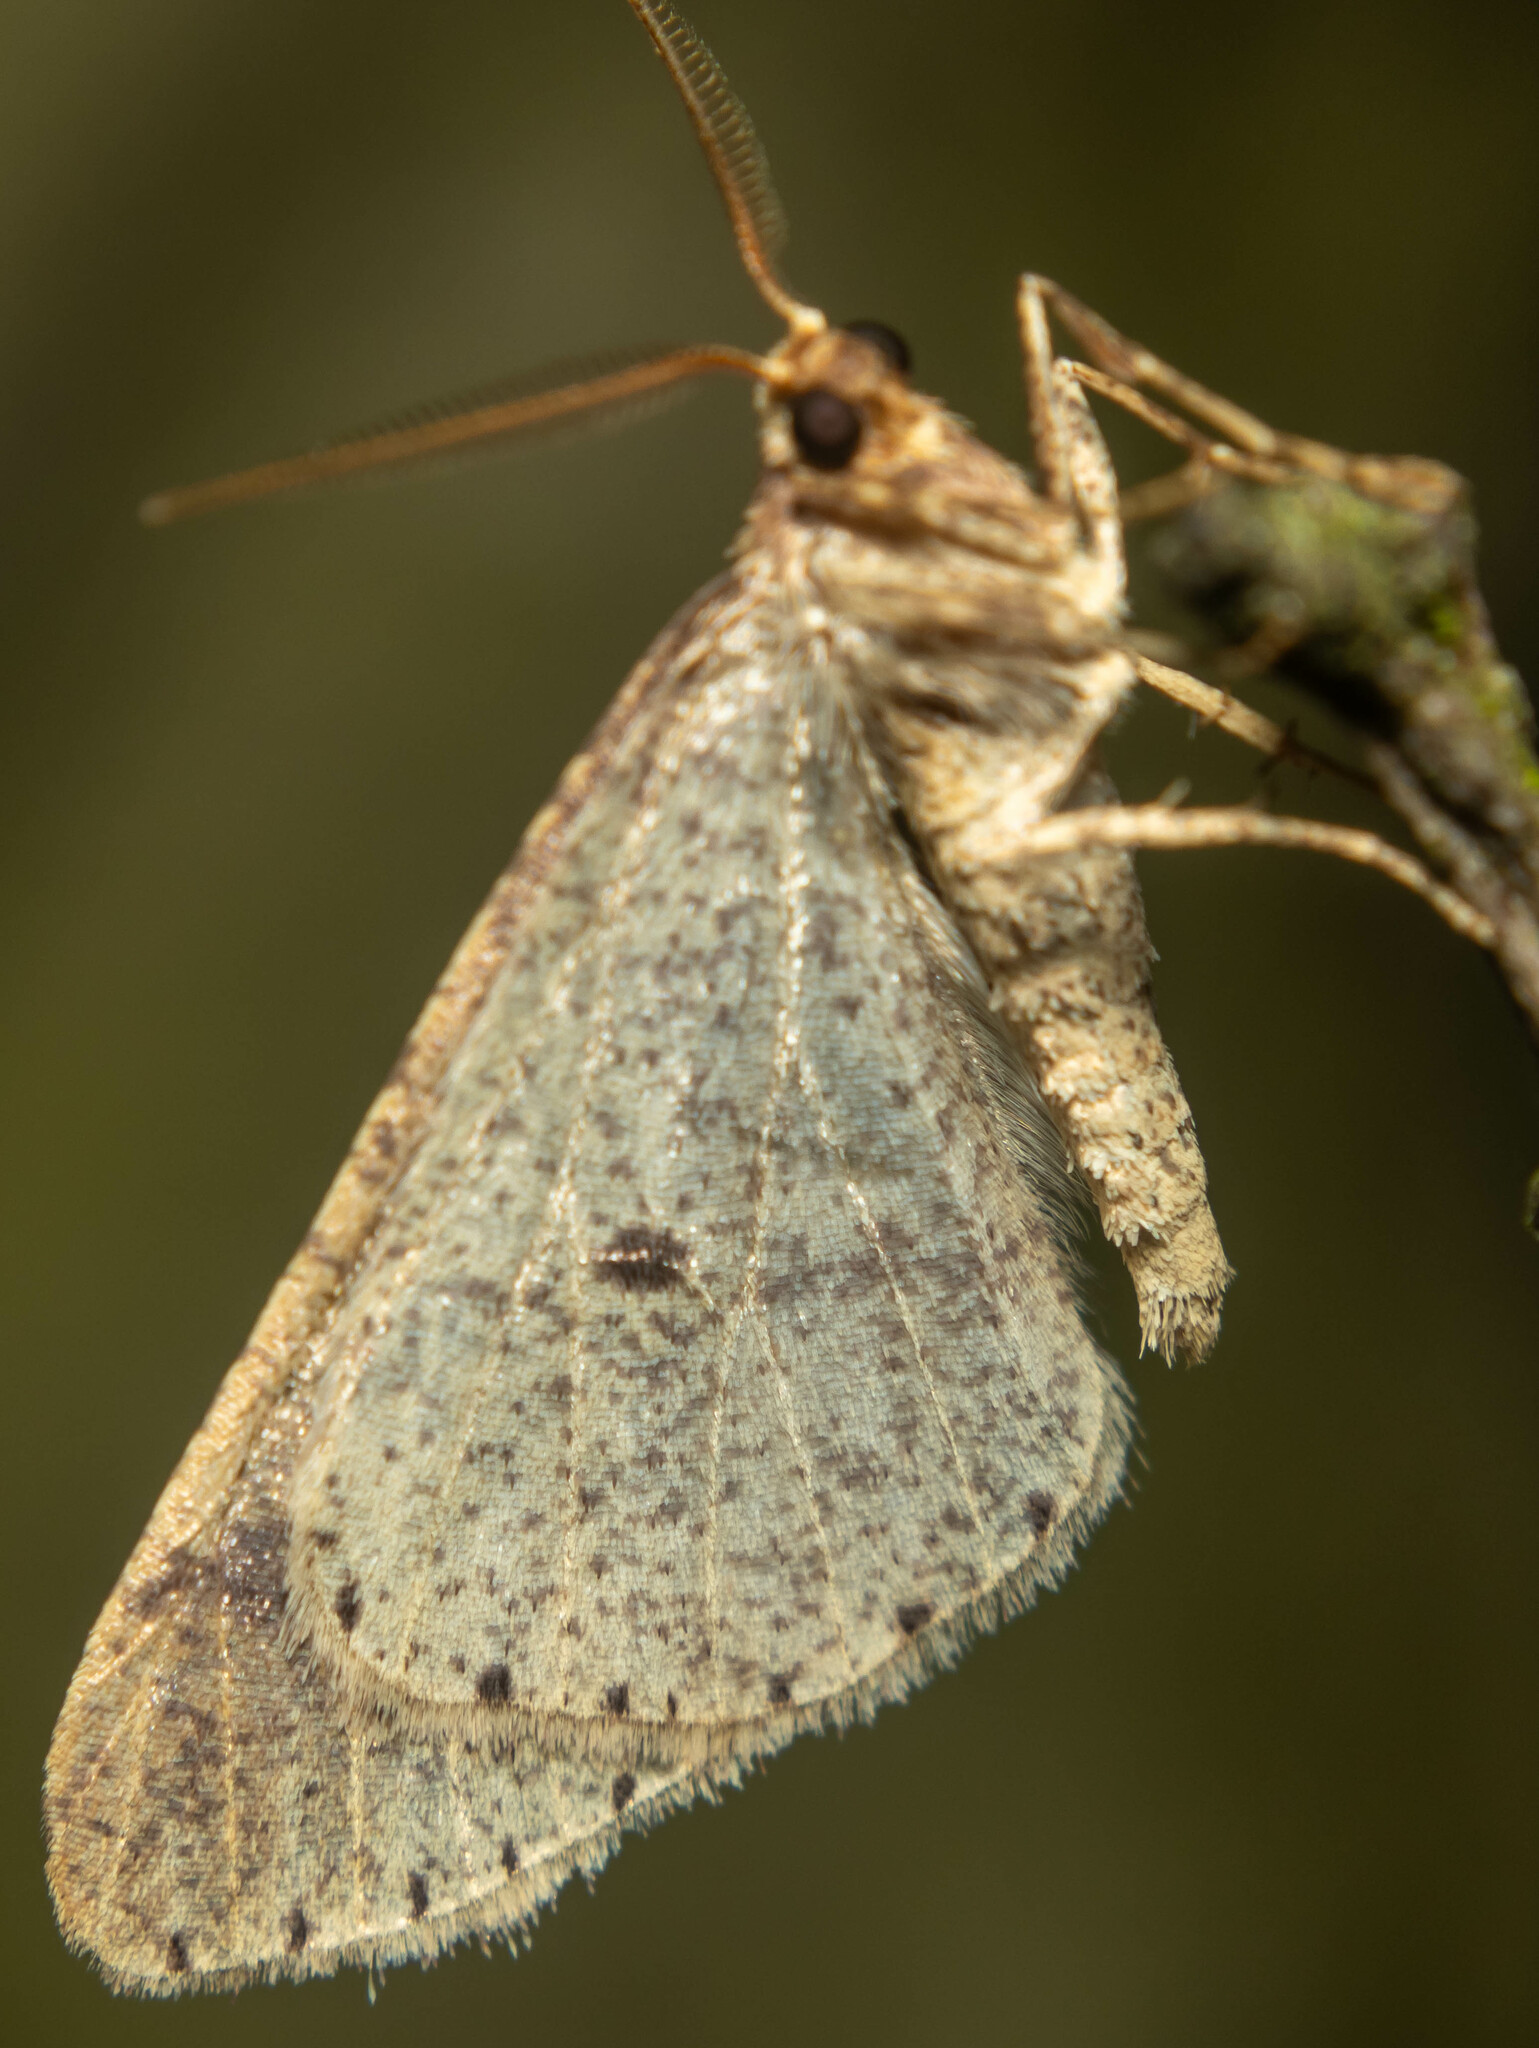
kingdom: Animalia
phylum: Arthropoda
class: Insecta
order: Lepidoptera
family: Geometridae
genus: Agriopis
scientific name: Agriopis marginaria
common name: Dotted border
